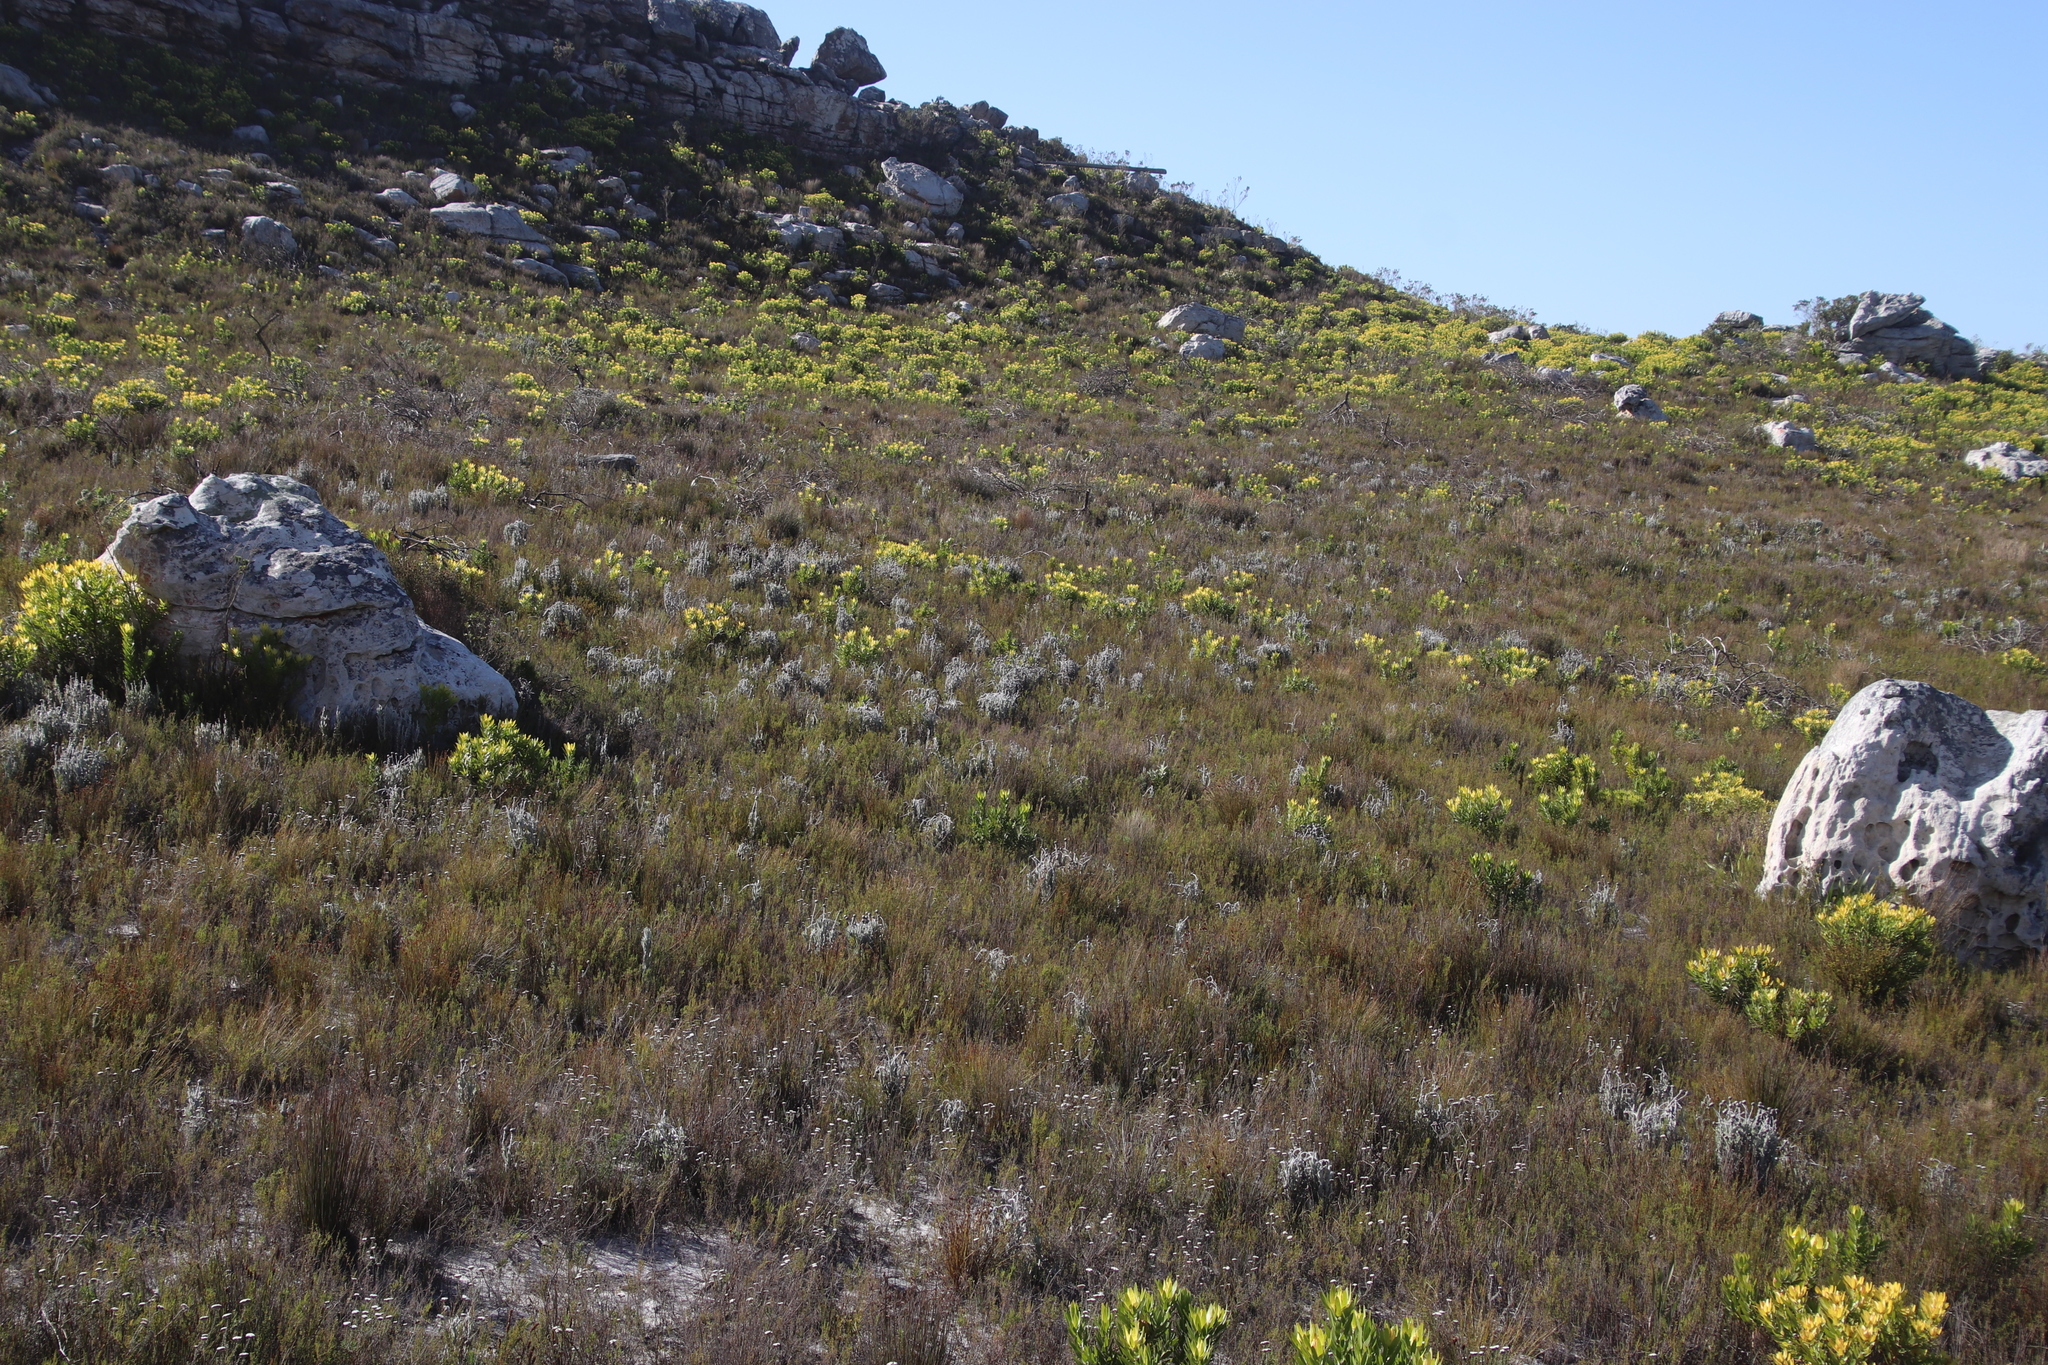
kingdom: Plantae
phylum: Tracheophyta
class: Magnoliopsida
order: Asterales
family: Asteraceae
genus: Syncarpha
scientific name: Syncarpha vestita
